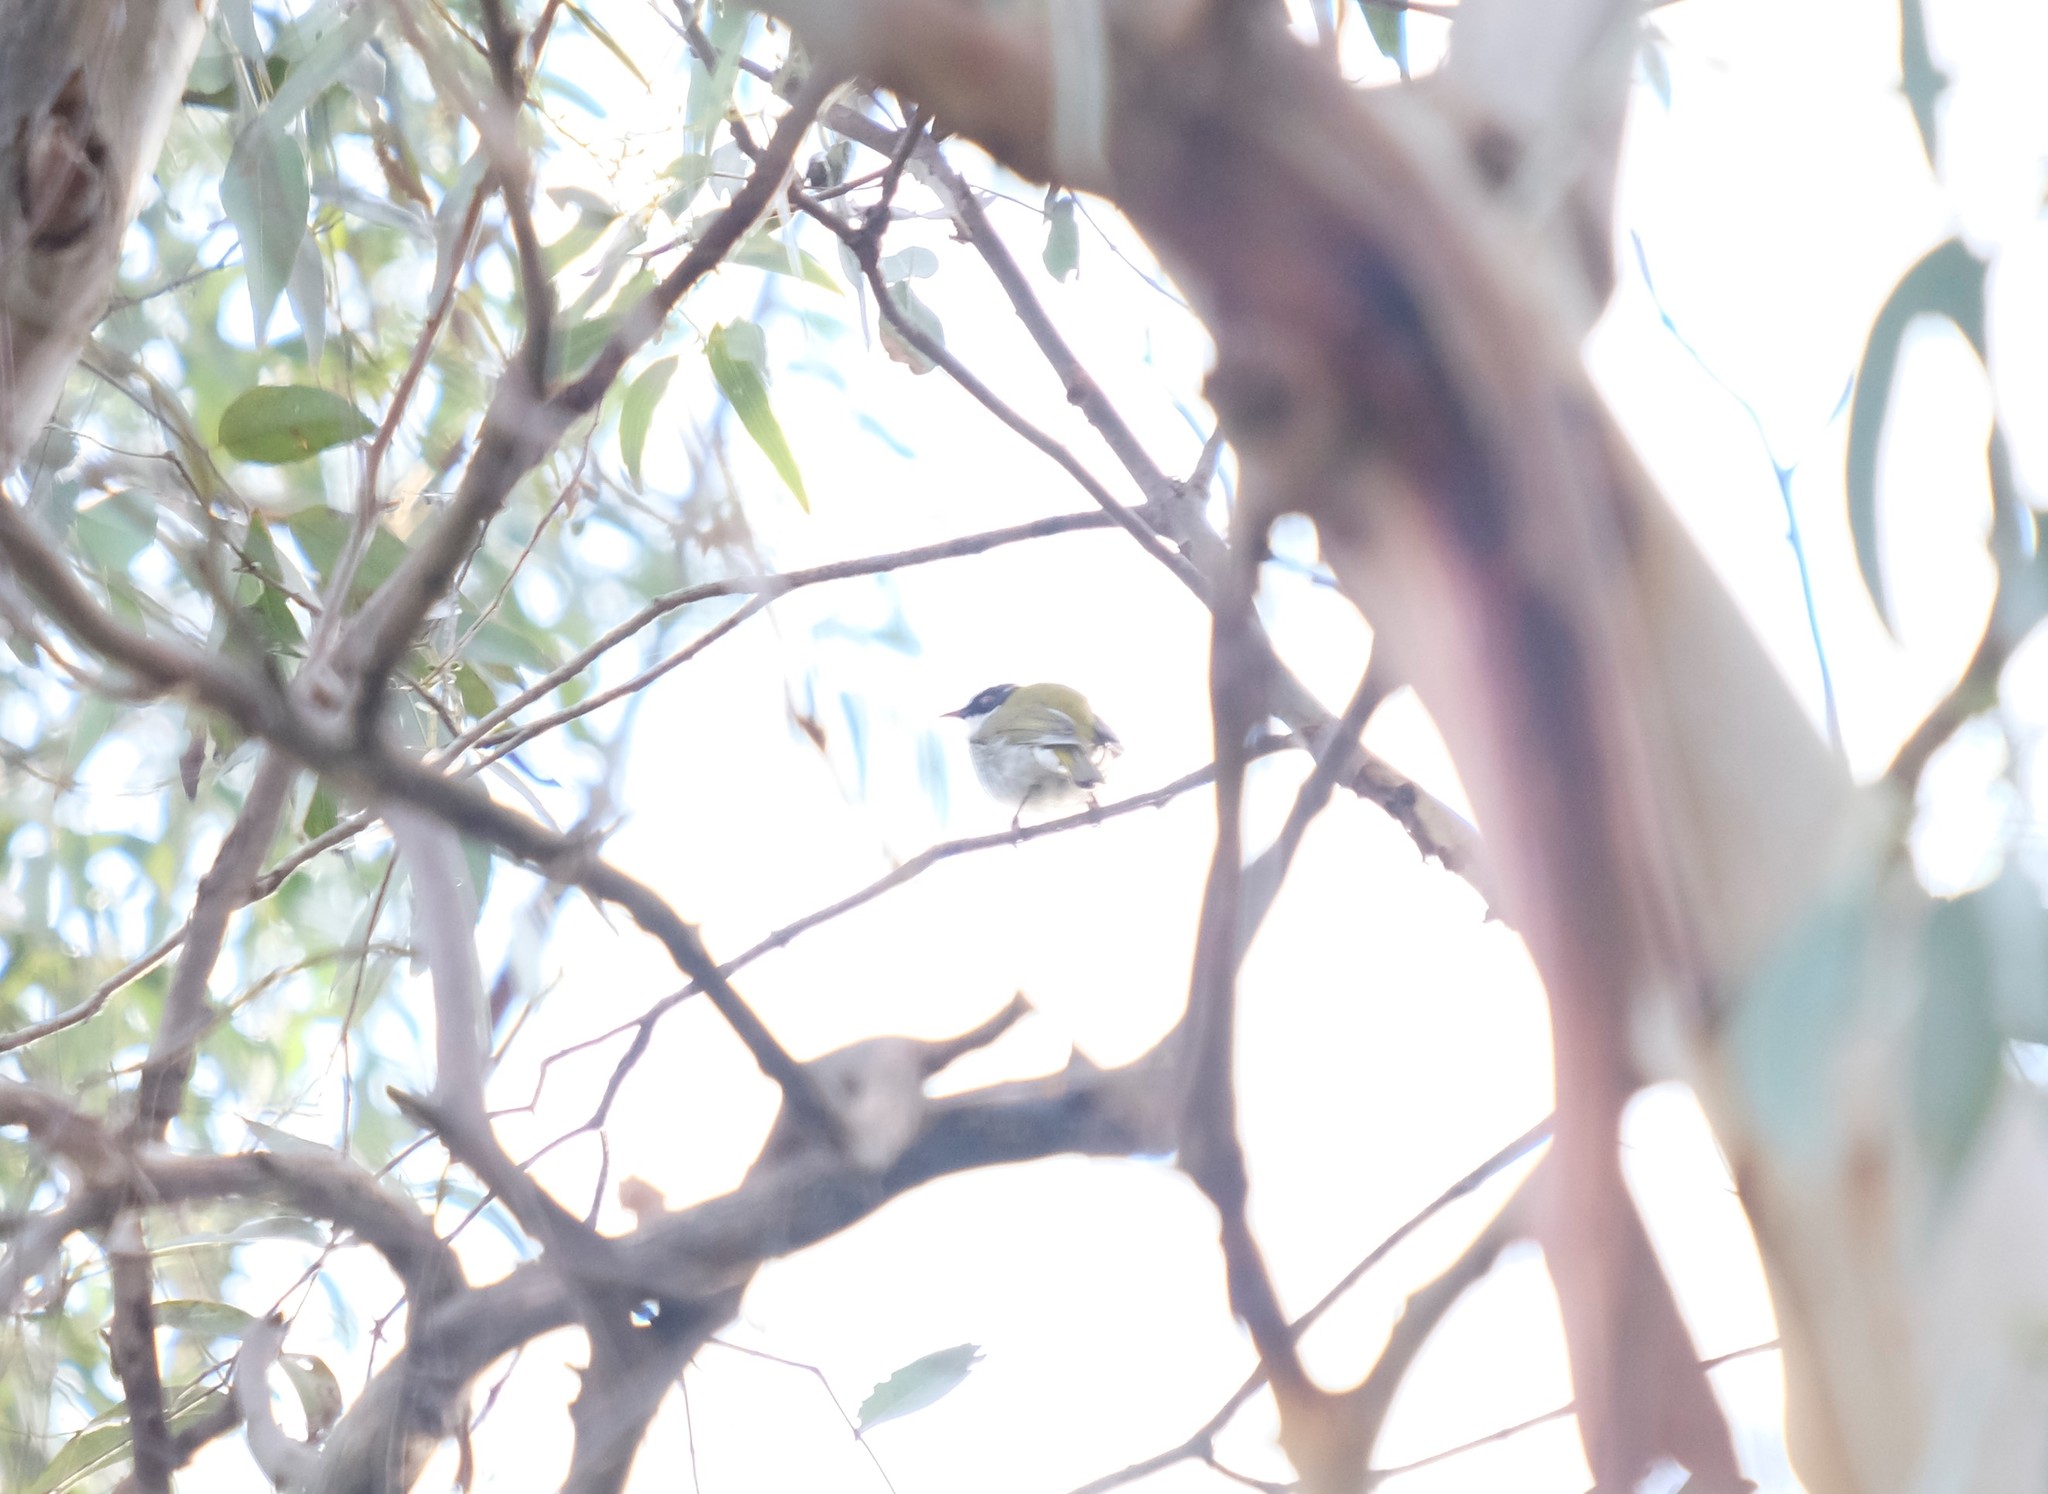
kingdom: Animalia
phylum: Chordata
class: Aves
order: Passeriformes
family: Meliphagidae
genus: Melithreptus
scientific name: Melithreptus lunatus
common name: White-naped honeyeater
